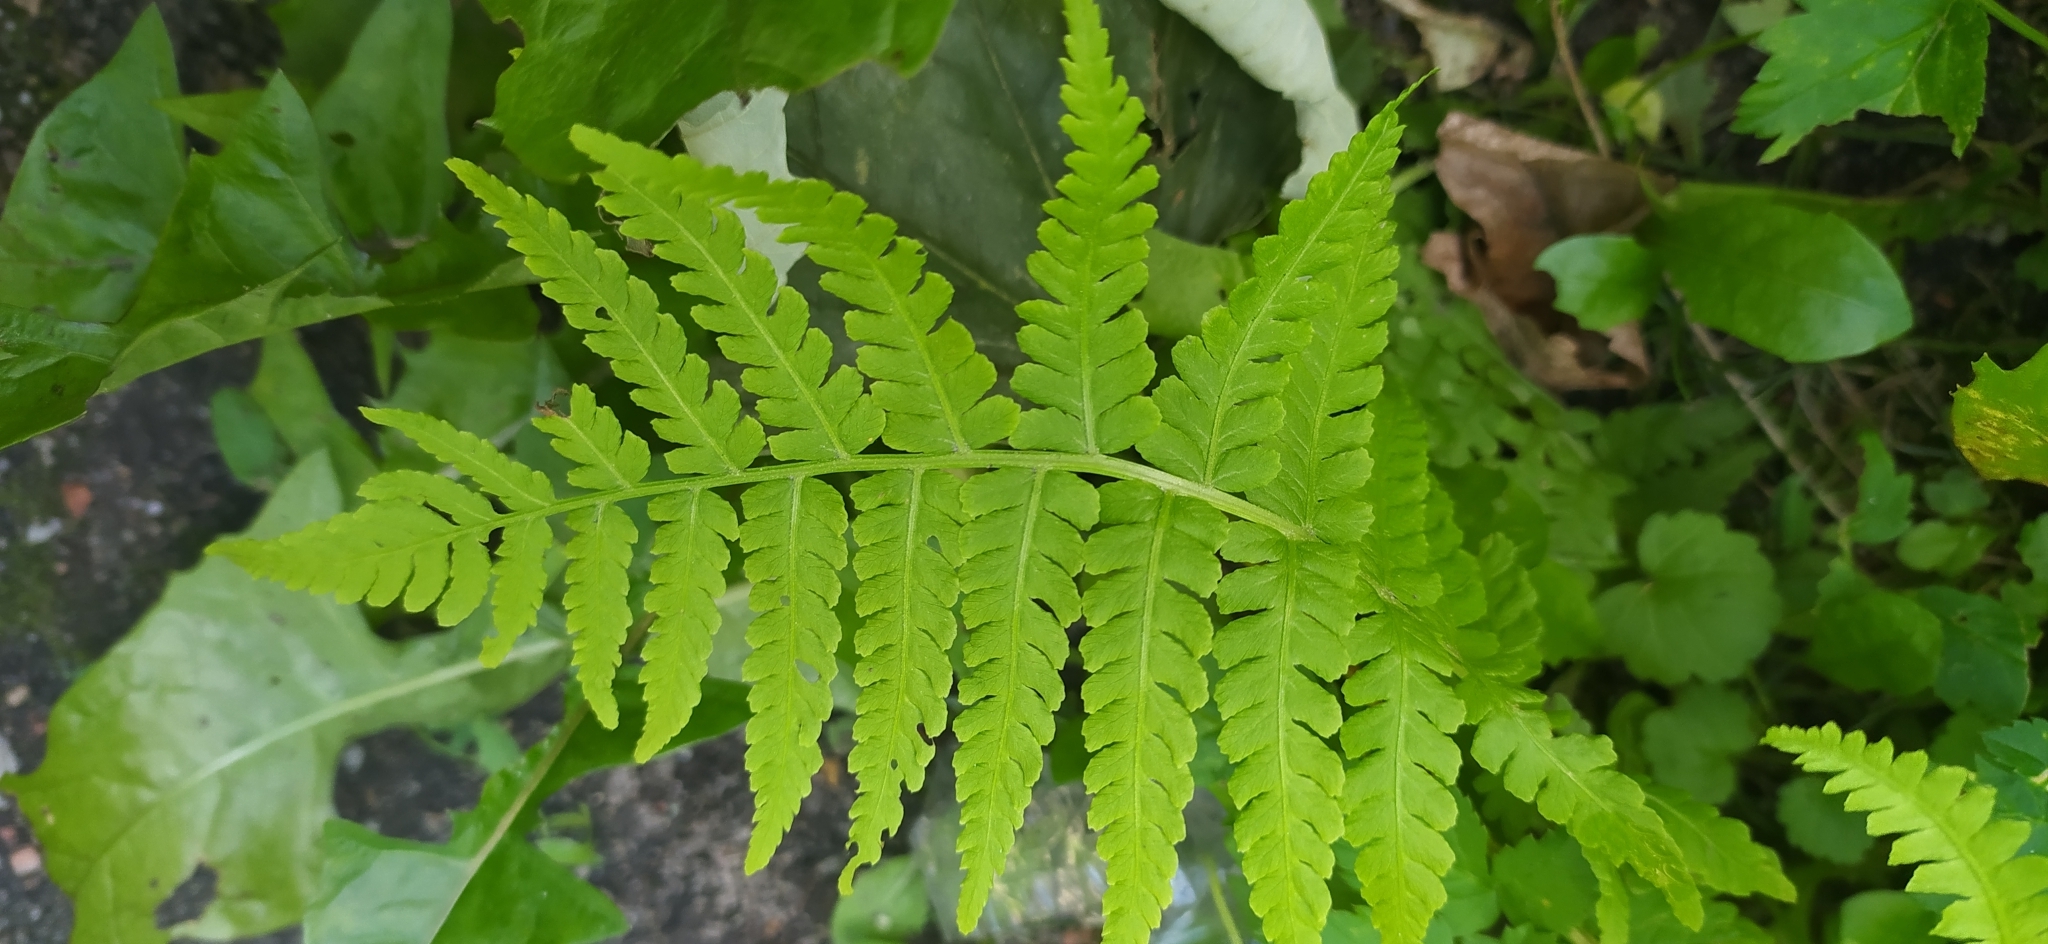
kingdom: Plantae
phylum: Tracheophyta
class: Polypodiopsida
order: Polypodiales
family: Onocleaceae
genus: Matteuccia
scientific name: Matteuccia struthiopteris
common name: Ostrich fern
